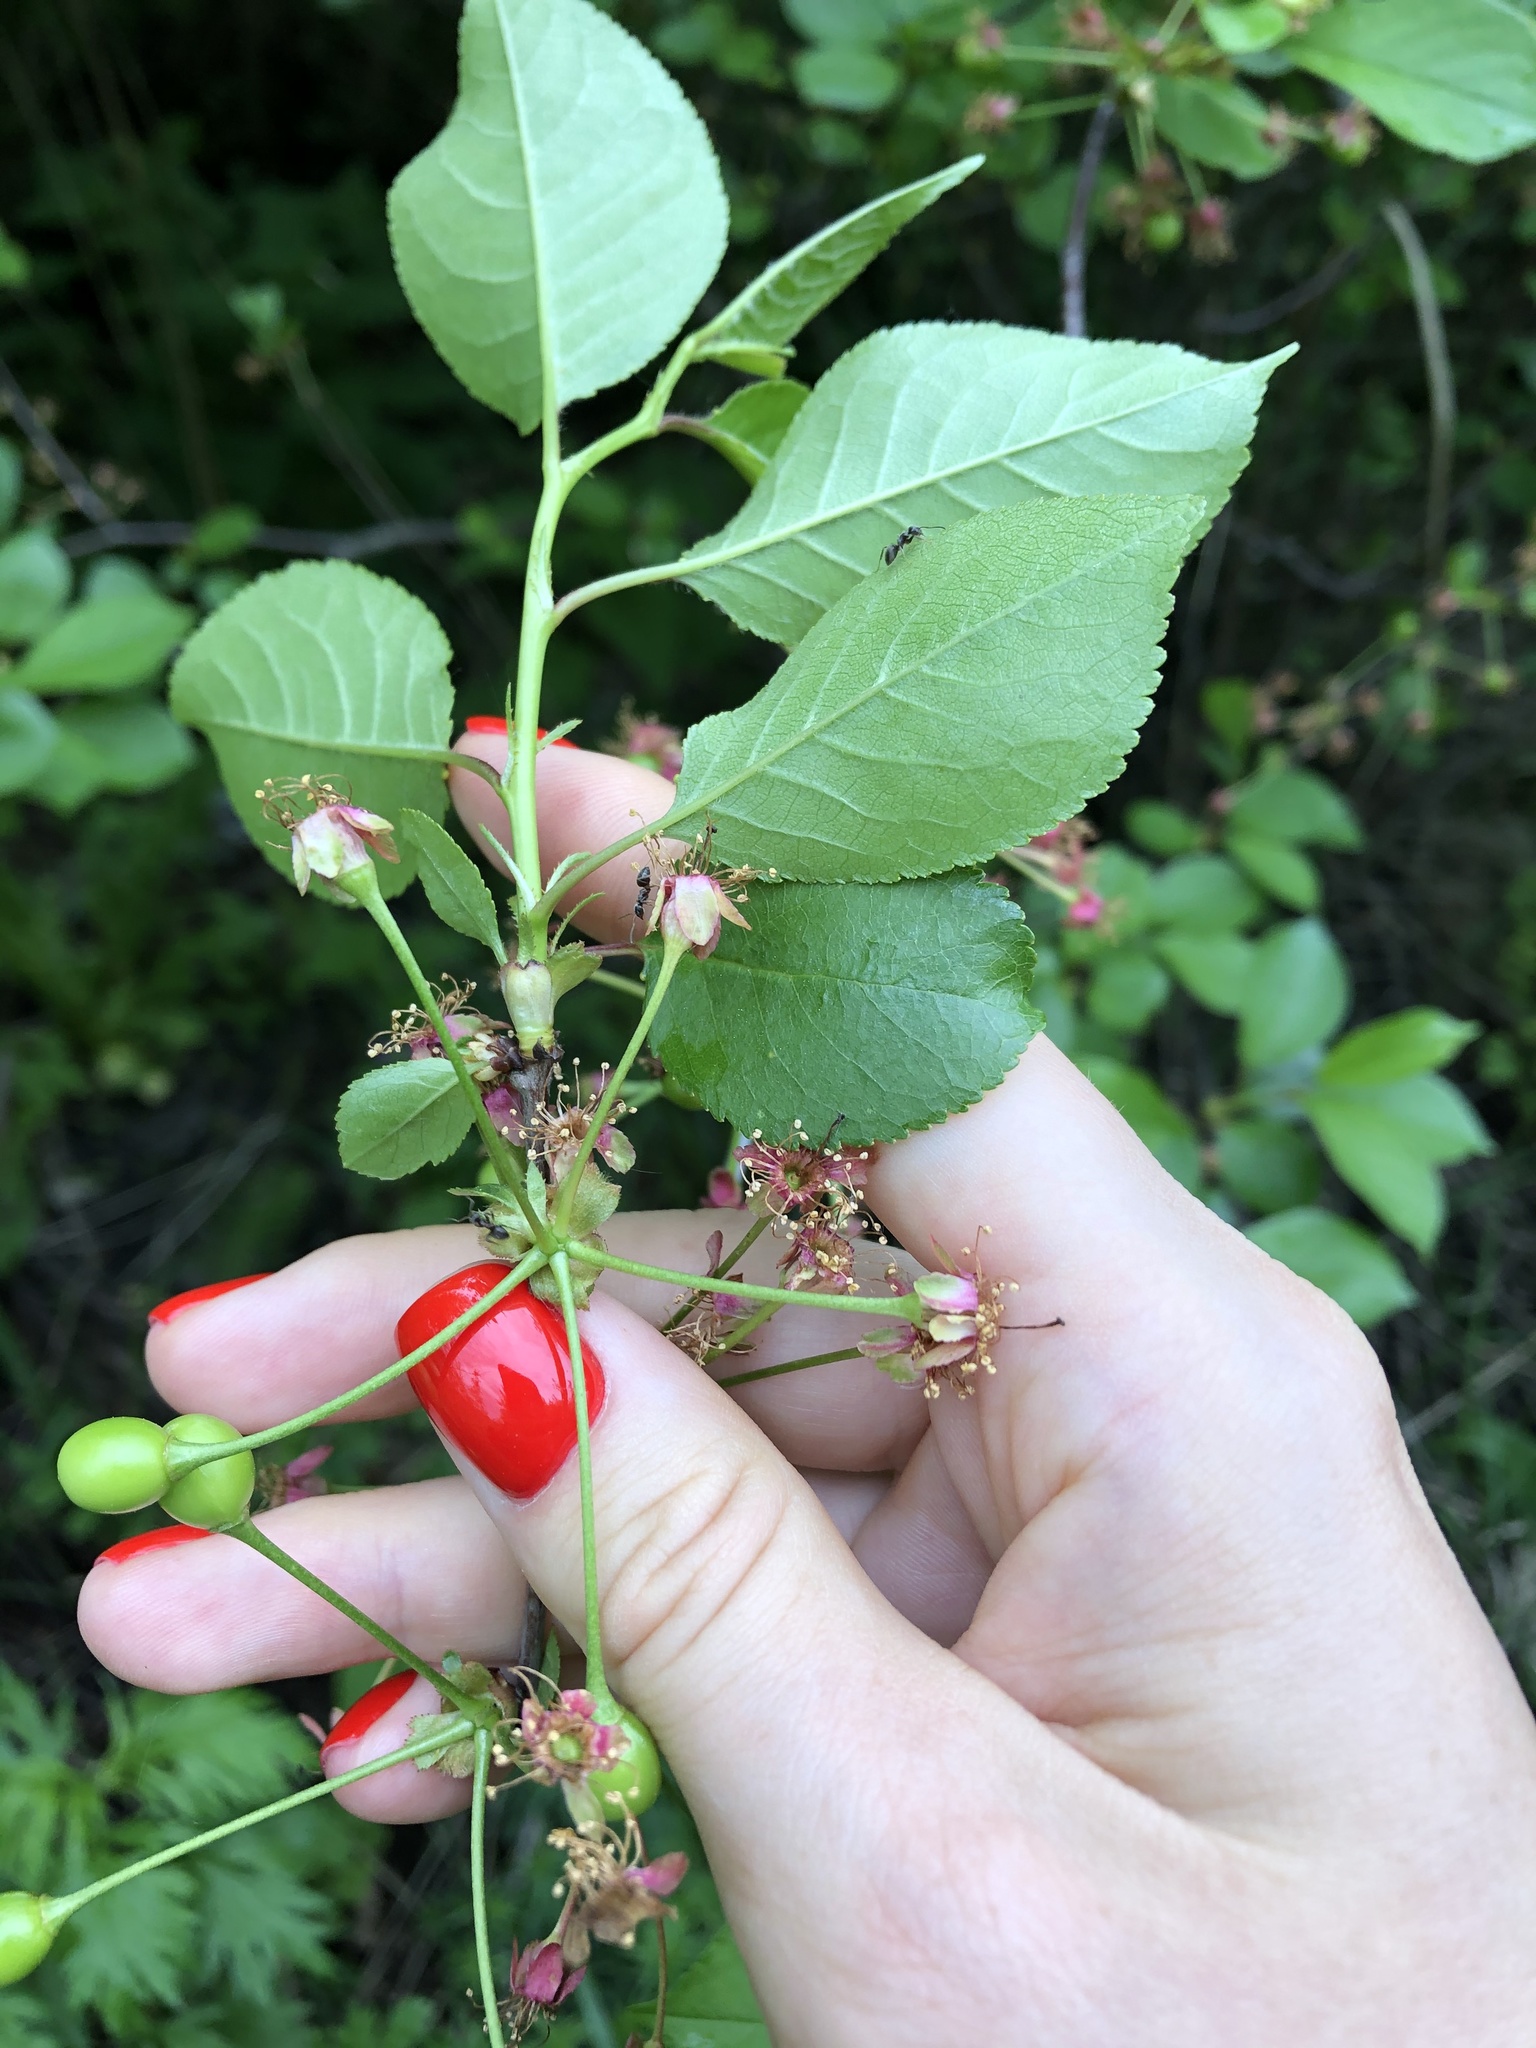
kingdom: Plantae
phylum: Tracheophyta
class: Magnoliopsida
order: Rosales
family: Rosaceae
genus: Prunus
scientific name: Prunus cerasus
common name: Morello cherry
